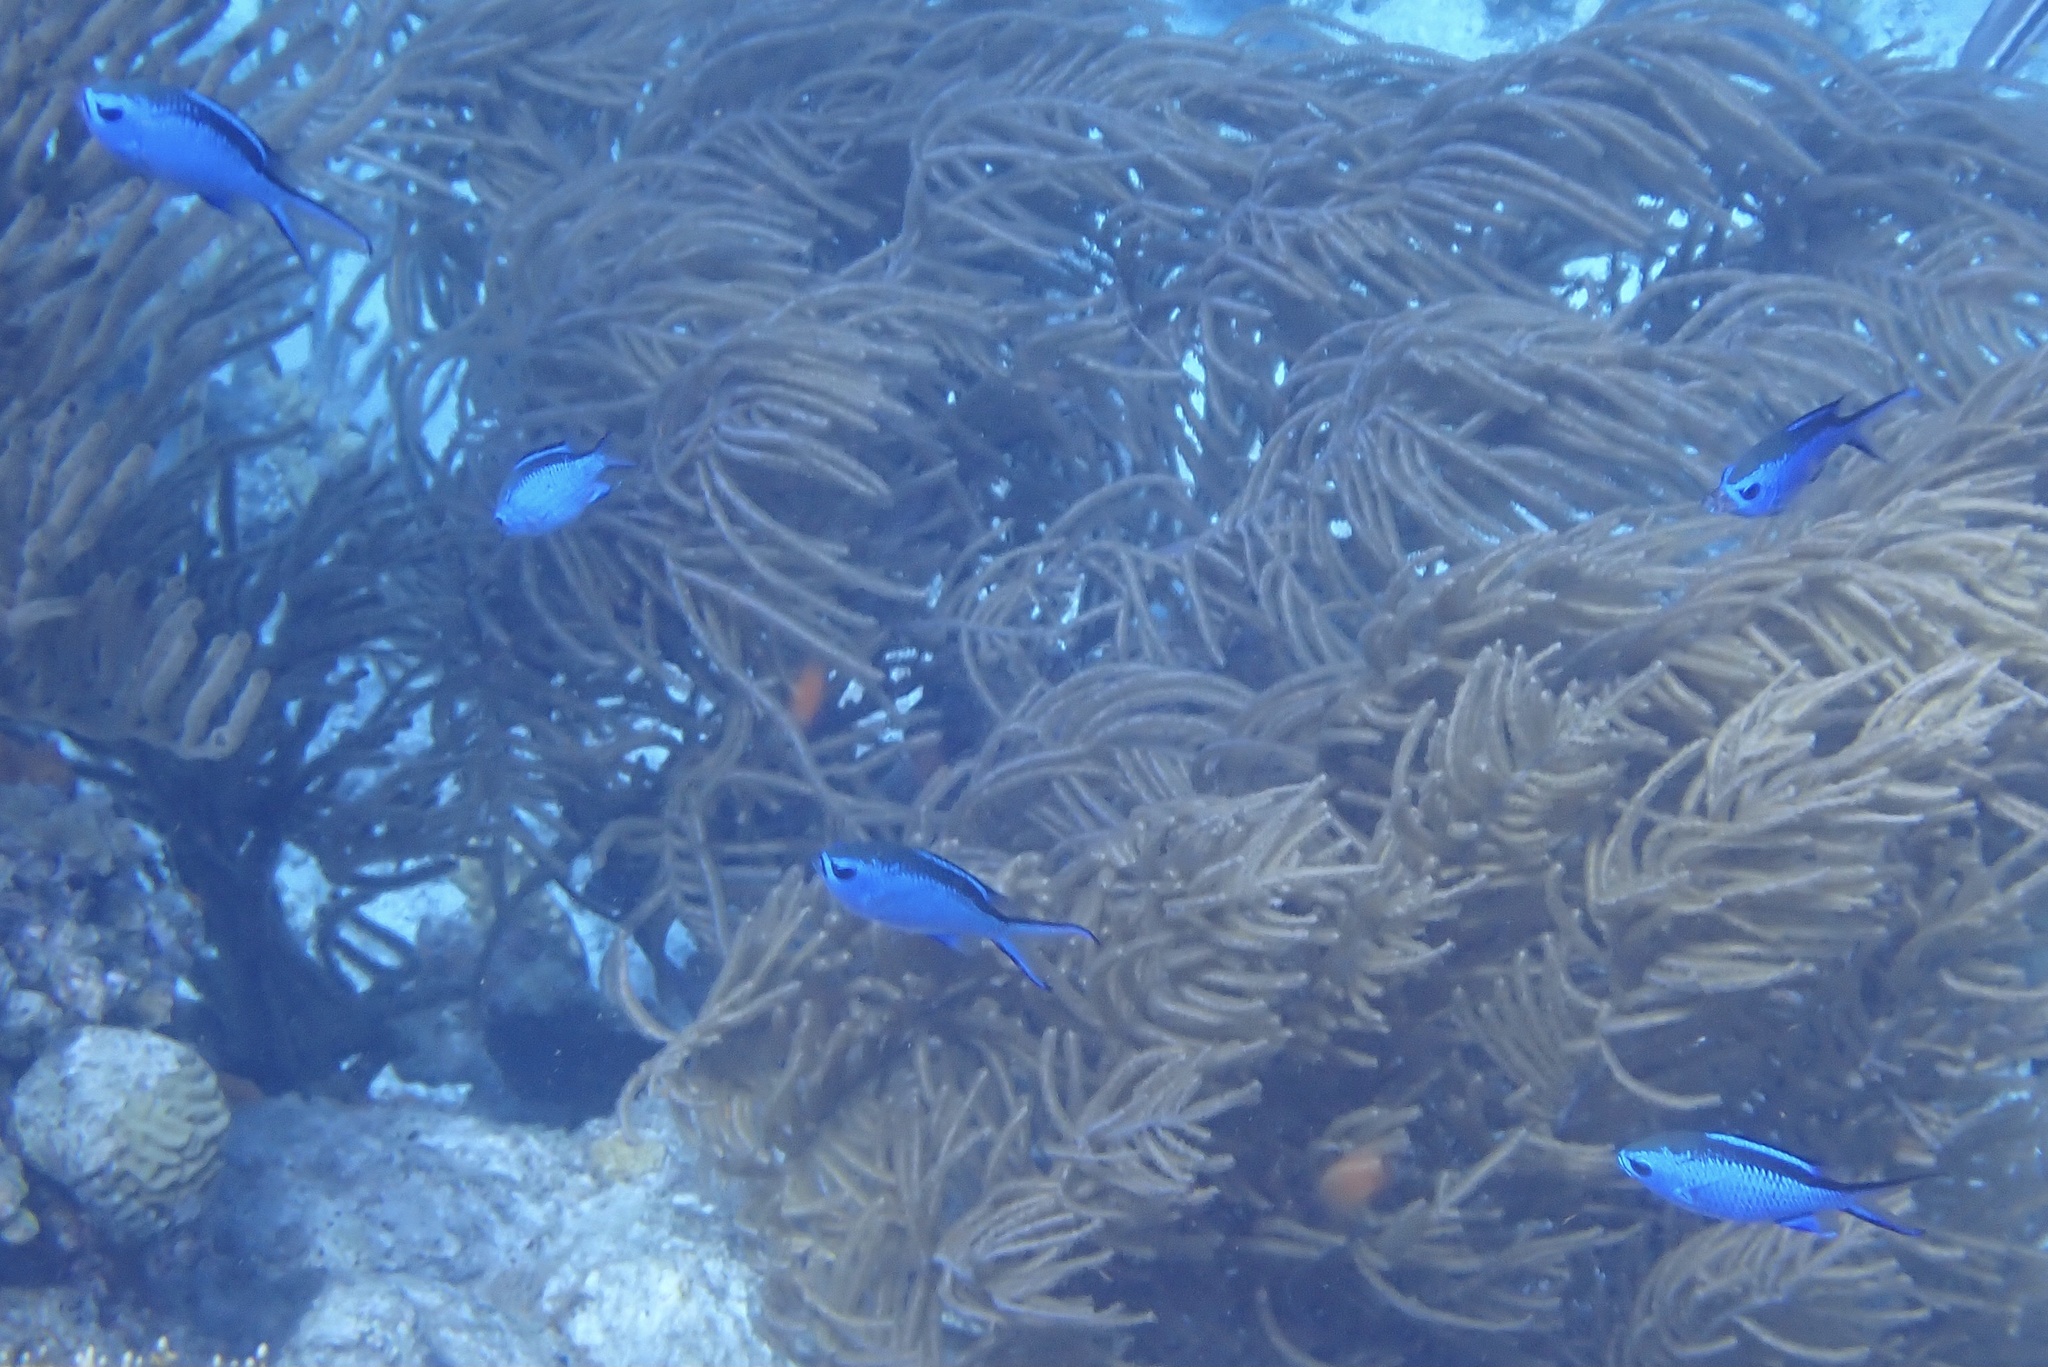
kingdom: Animalia
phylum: Chordata
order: Perciformes
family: Pomacentridae
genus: Chromis
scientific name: Chromis cyanea
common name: Blue chromis
